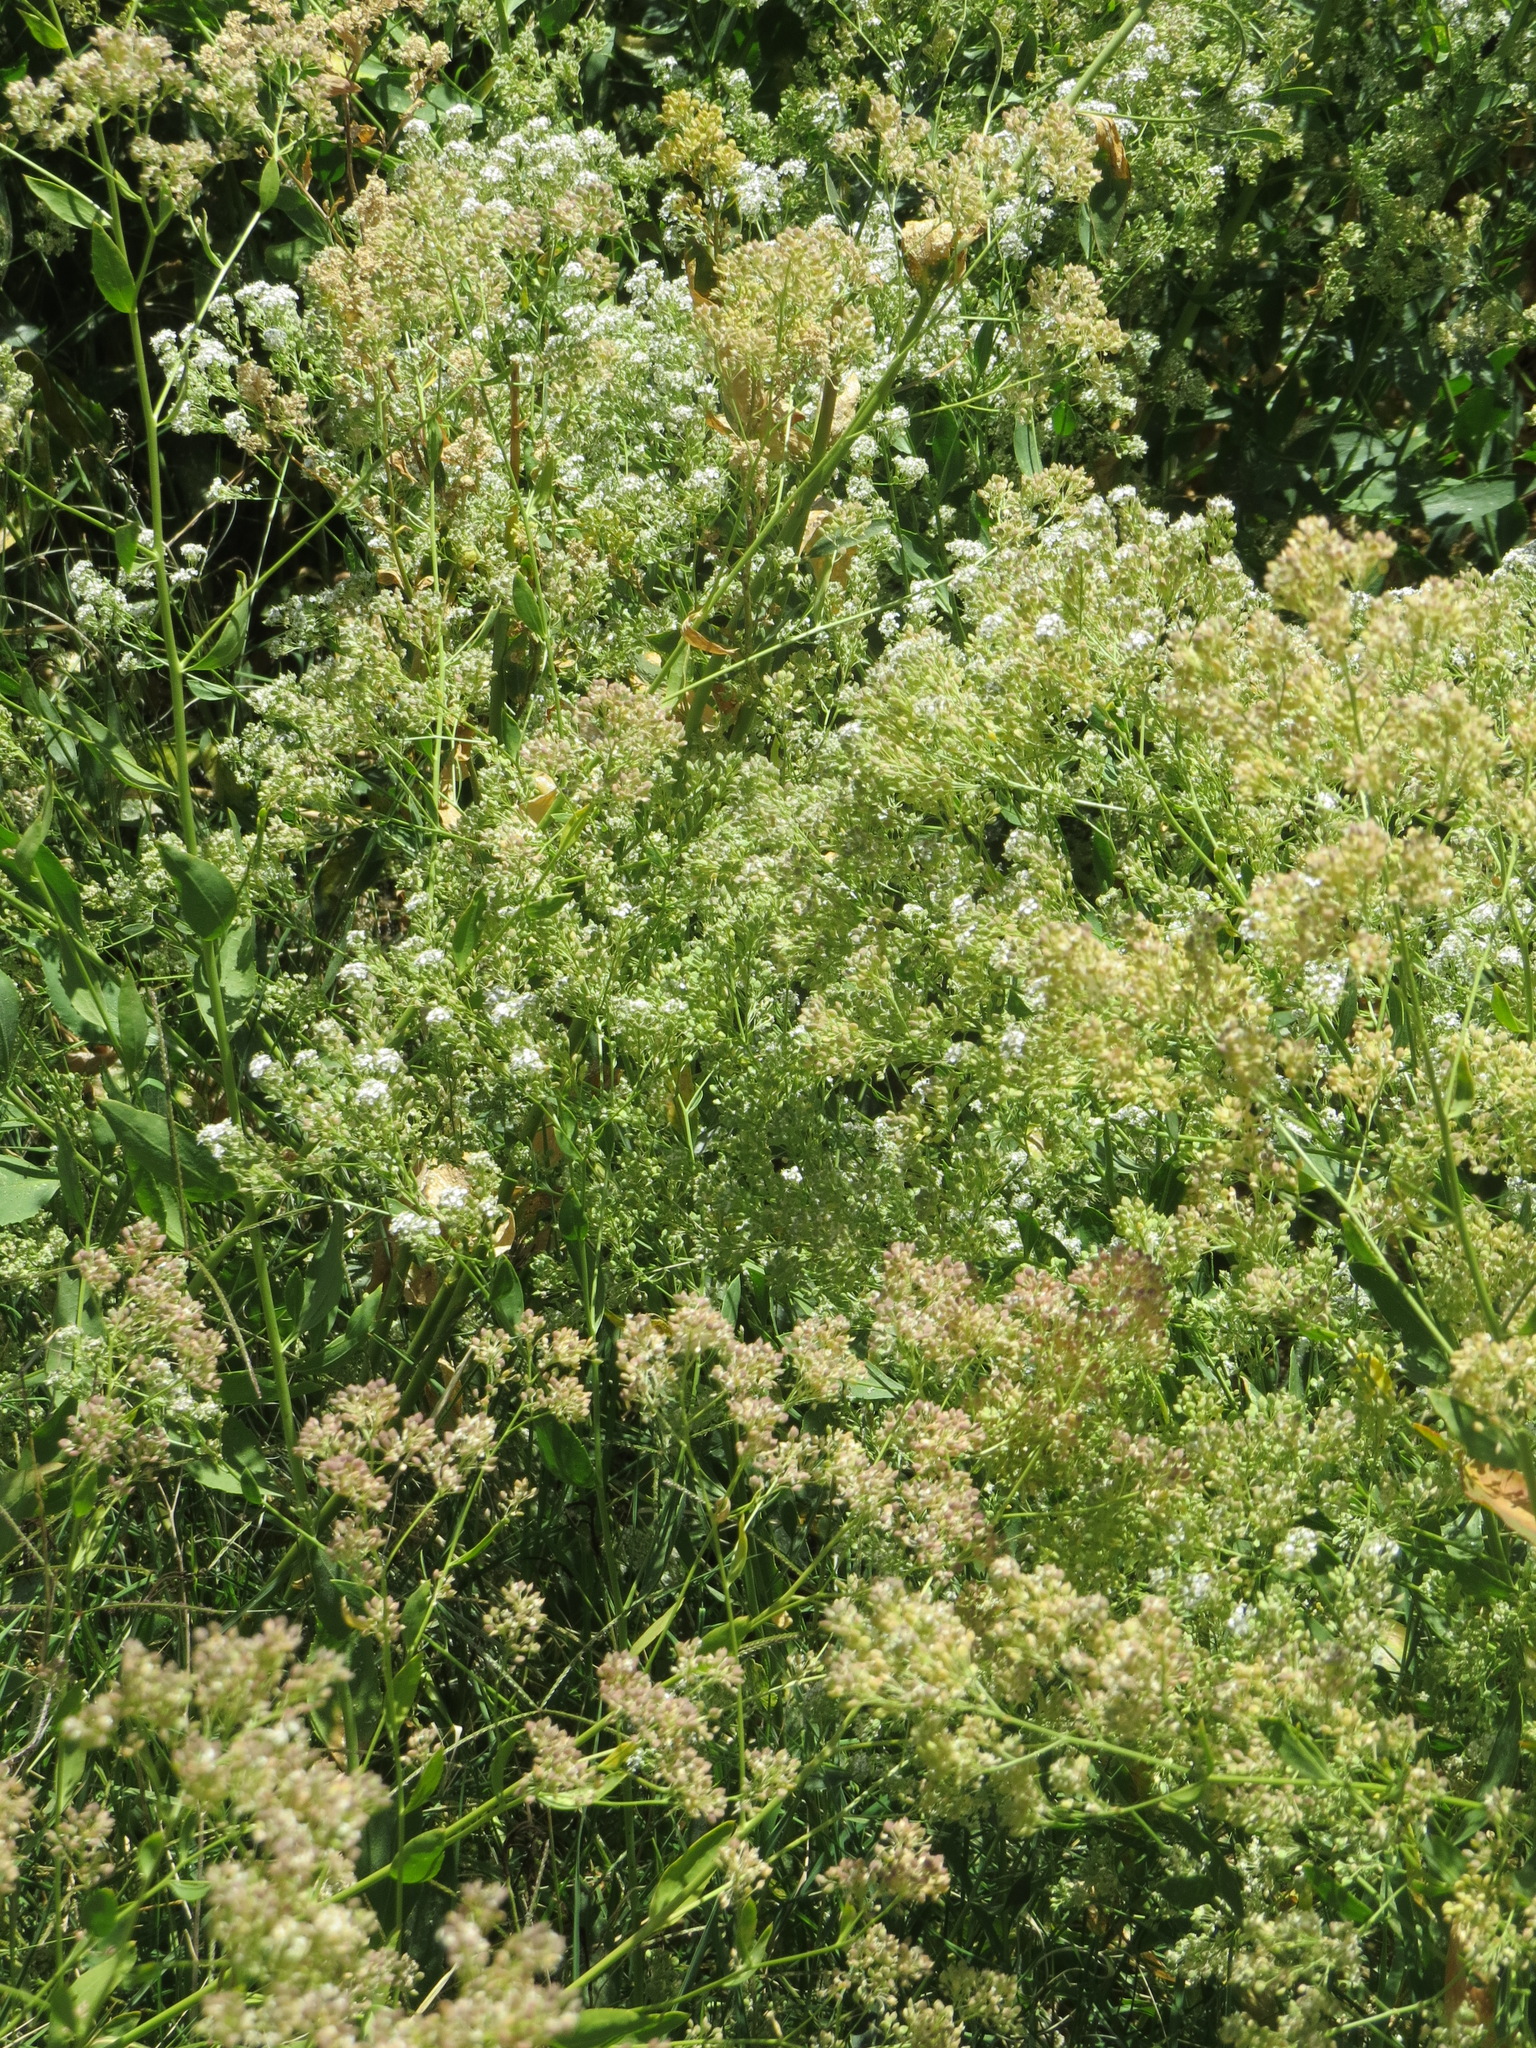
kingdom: Plantae
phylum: Tracheophyta
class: Magnoliopsida
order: Brassicales
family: Brassicaceae
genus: Lepidium
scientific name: Lepidium latifolium
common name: Dittander
